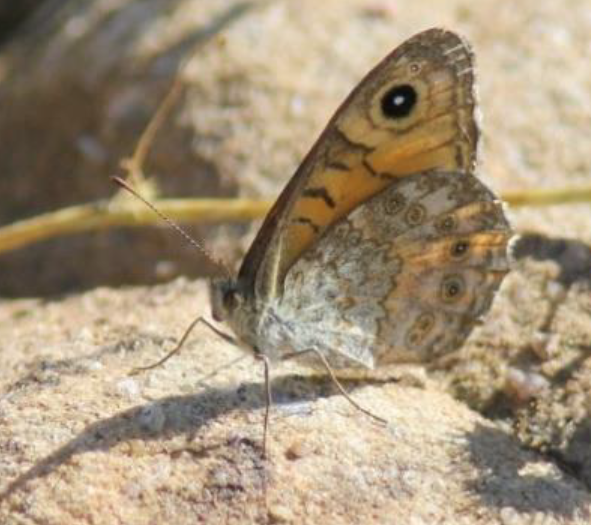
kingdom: Animalia
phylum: Arthropoda
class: Insecta
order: Lepidoptera
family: Nymphalidae
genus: Pararge
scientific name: Pararge Lasiommata megera
